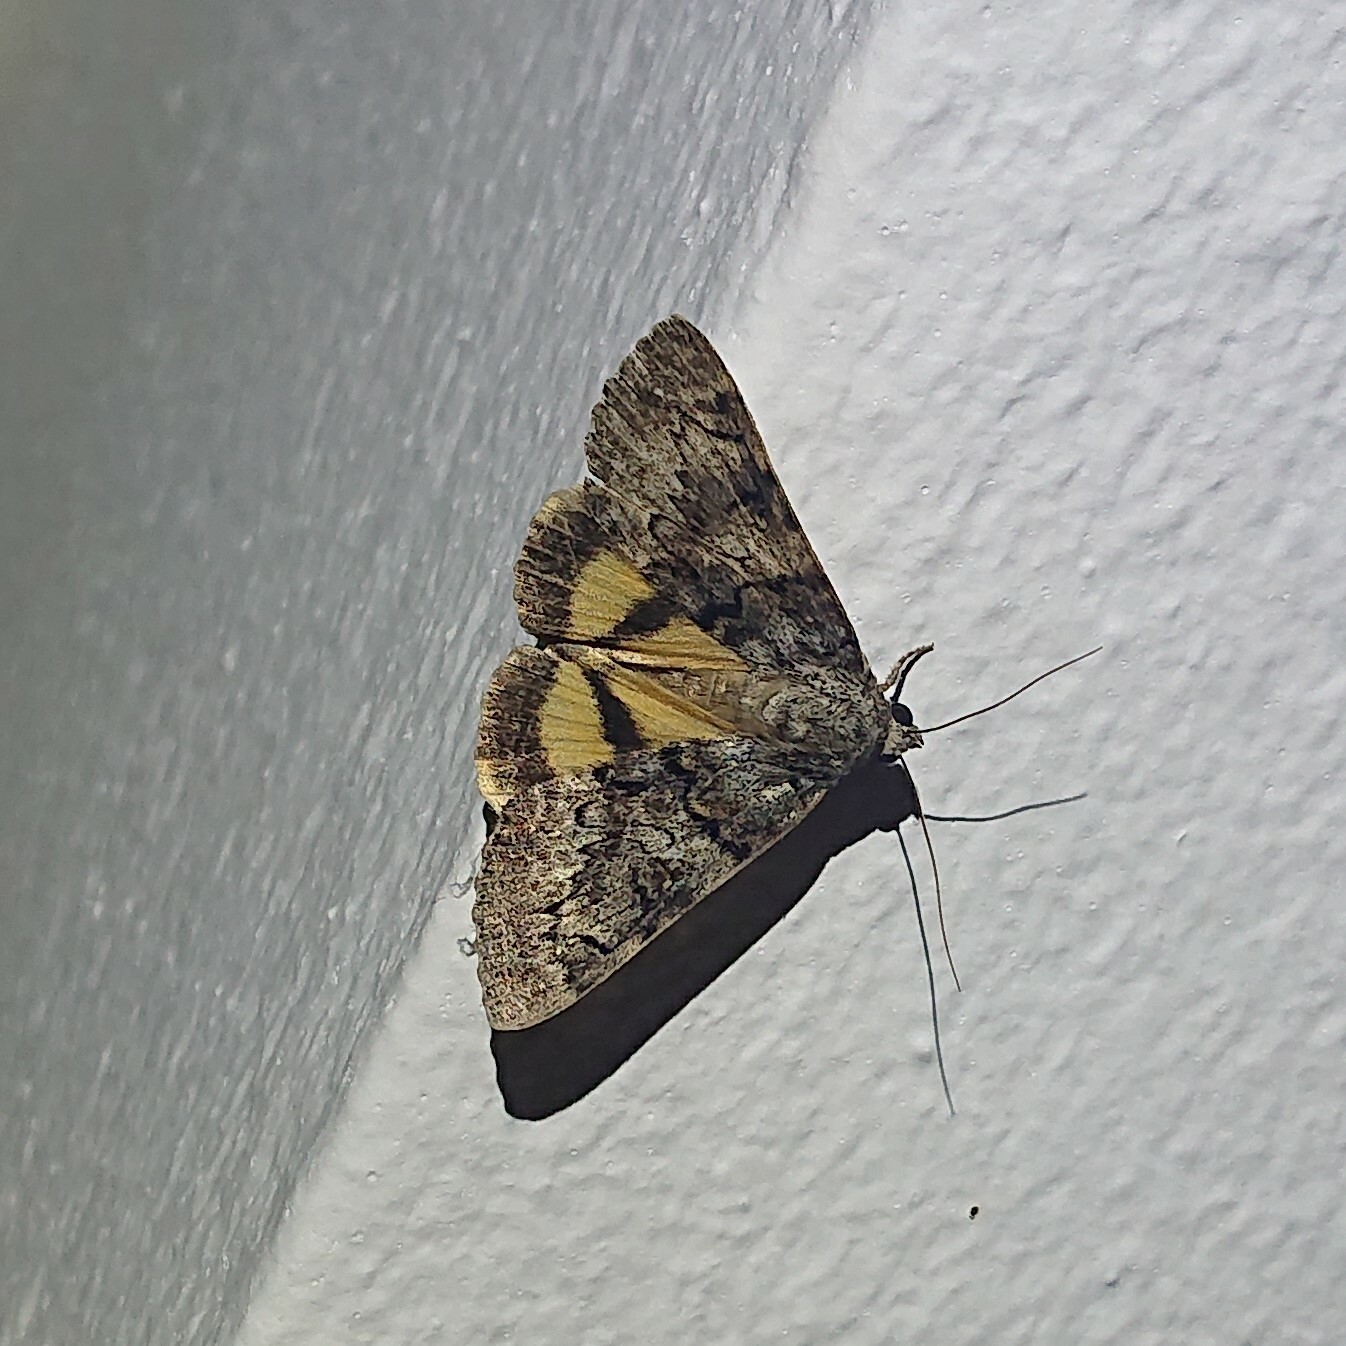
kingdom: Animalia
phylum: Arthropoda
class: Insecta
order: Lepidoptera
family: Erebidae
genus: Catocala
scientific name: Catocala nymphagoga
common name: Oak yellow underwing
